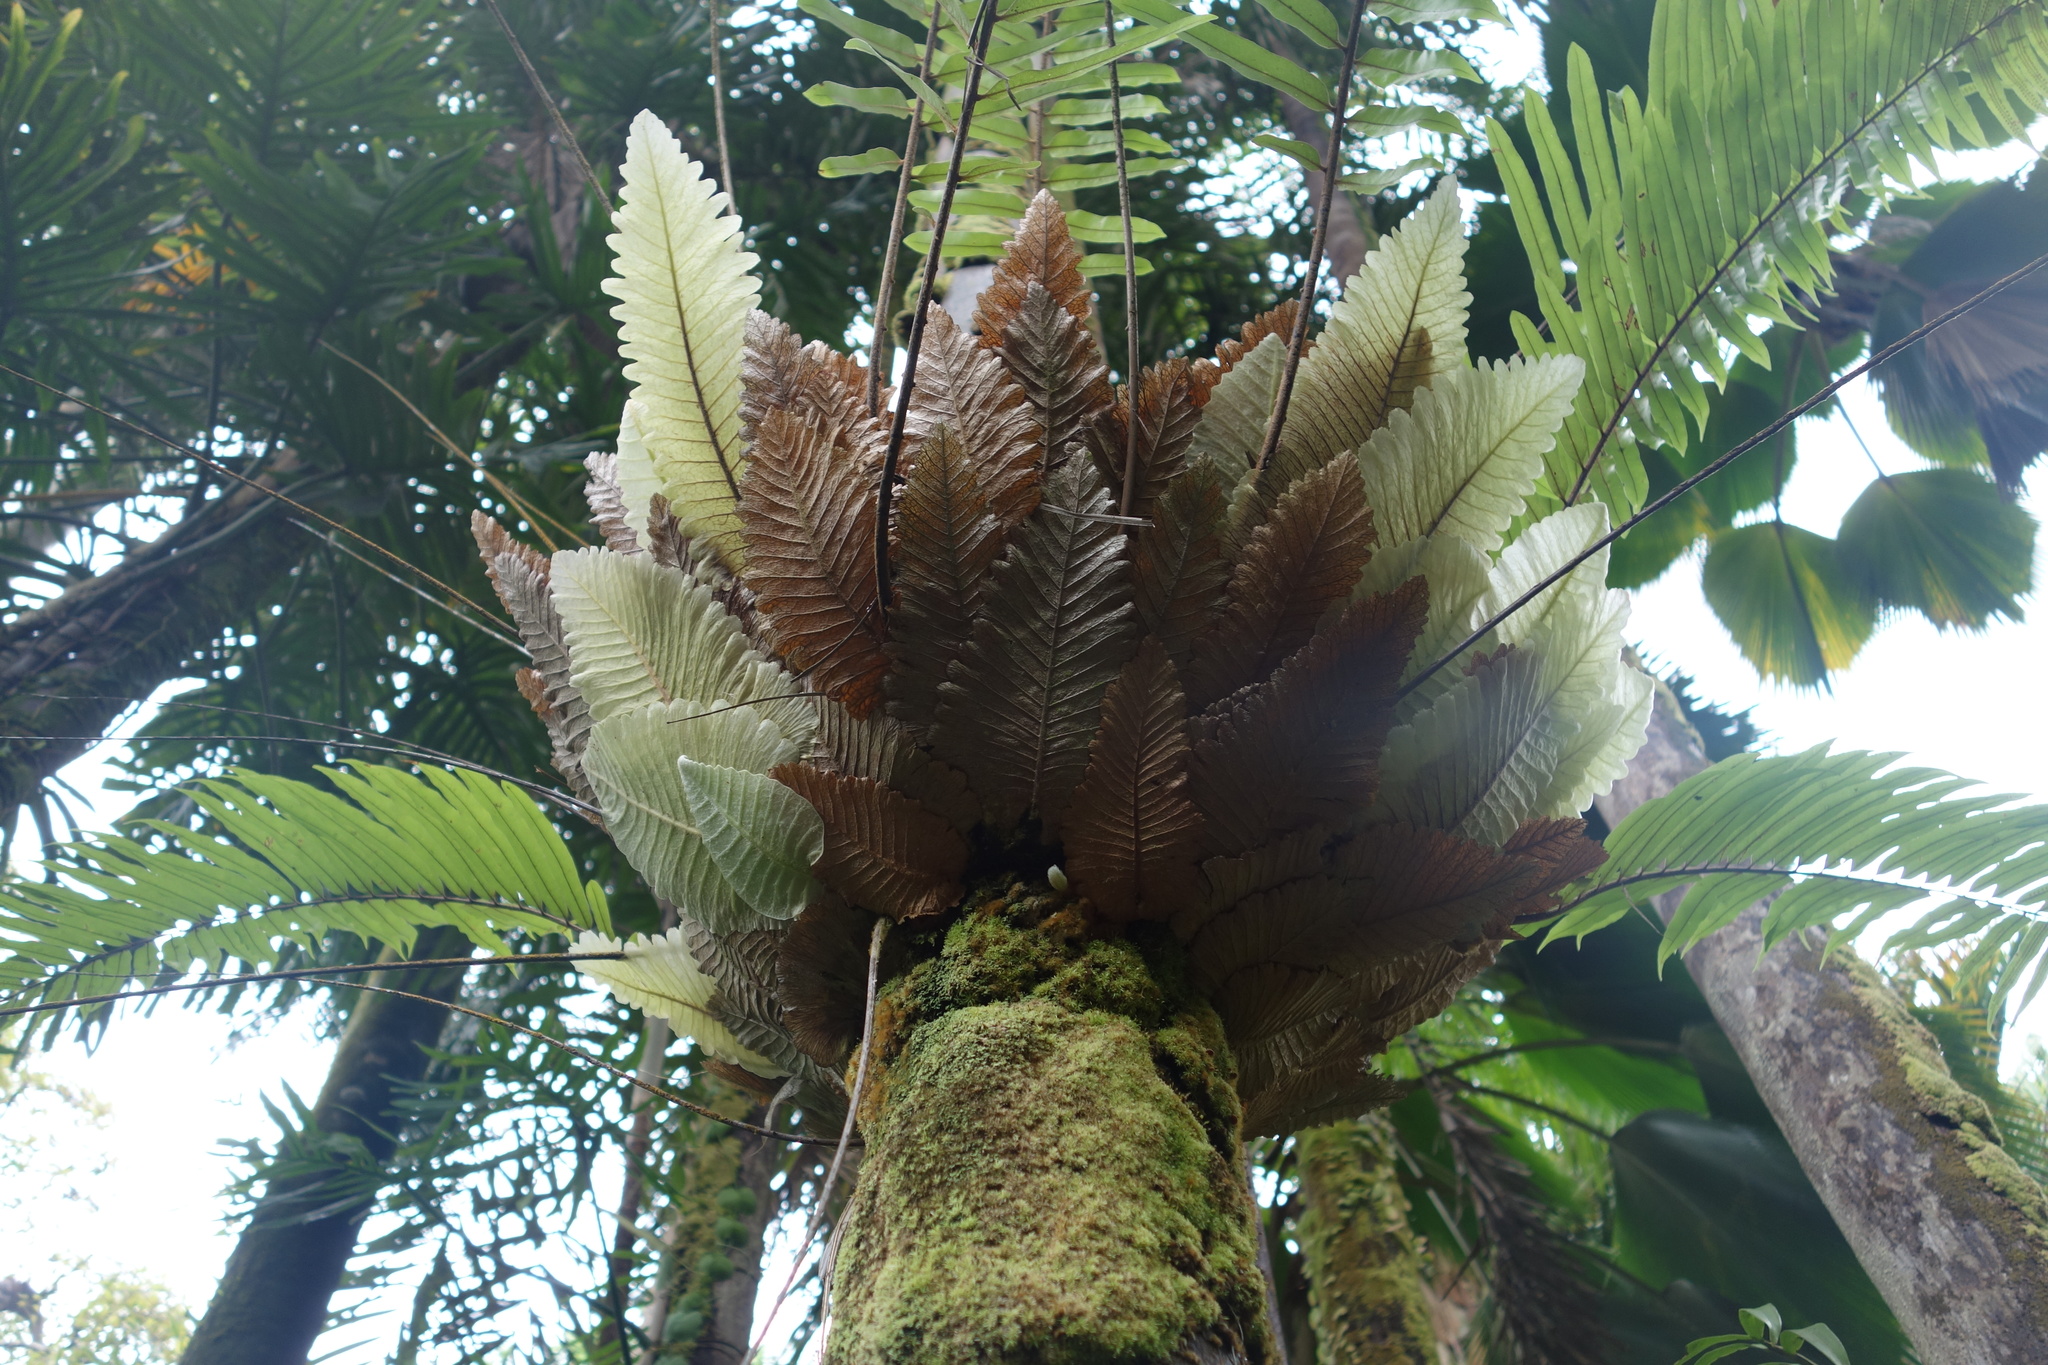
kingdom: Plantae
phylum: Tracheophyta
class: Polypodiopsida
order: Polypodiales
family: Polypodiaceae
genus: Drynaria
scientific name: Drynaria rigidula
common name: Basket fern
